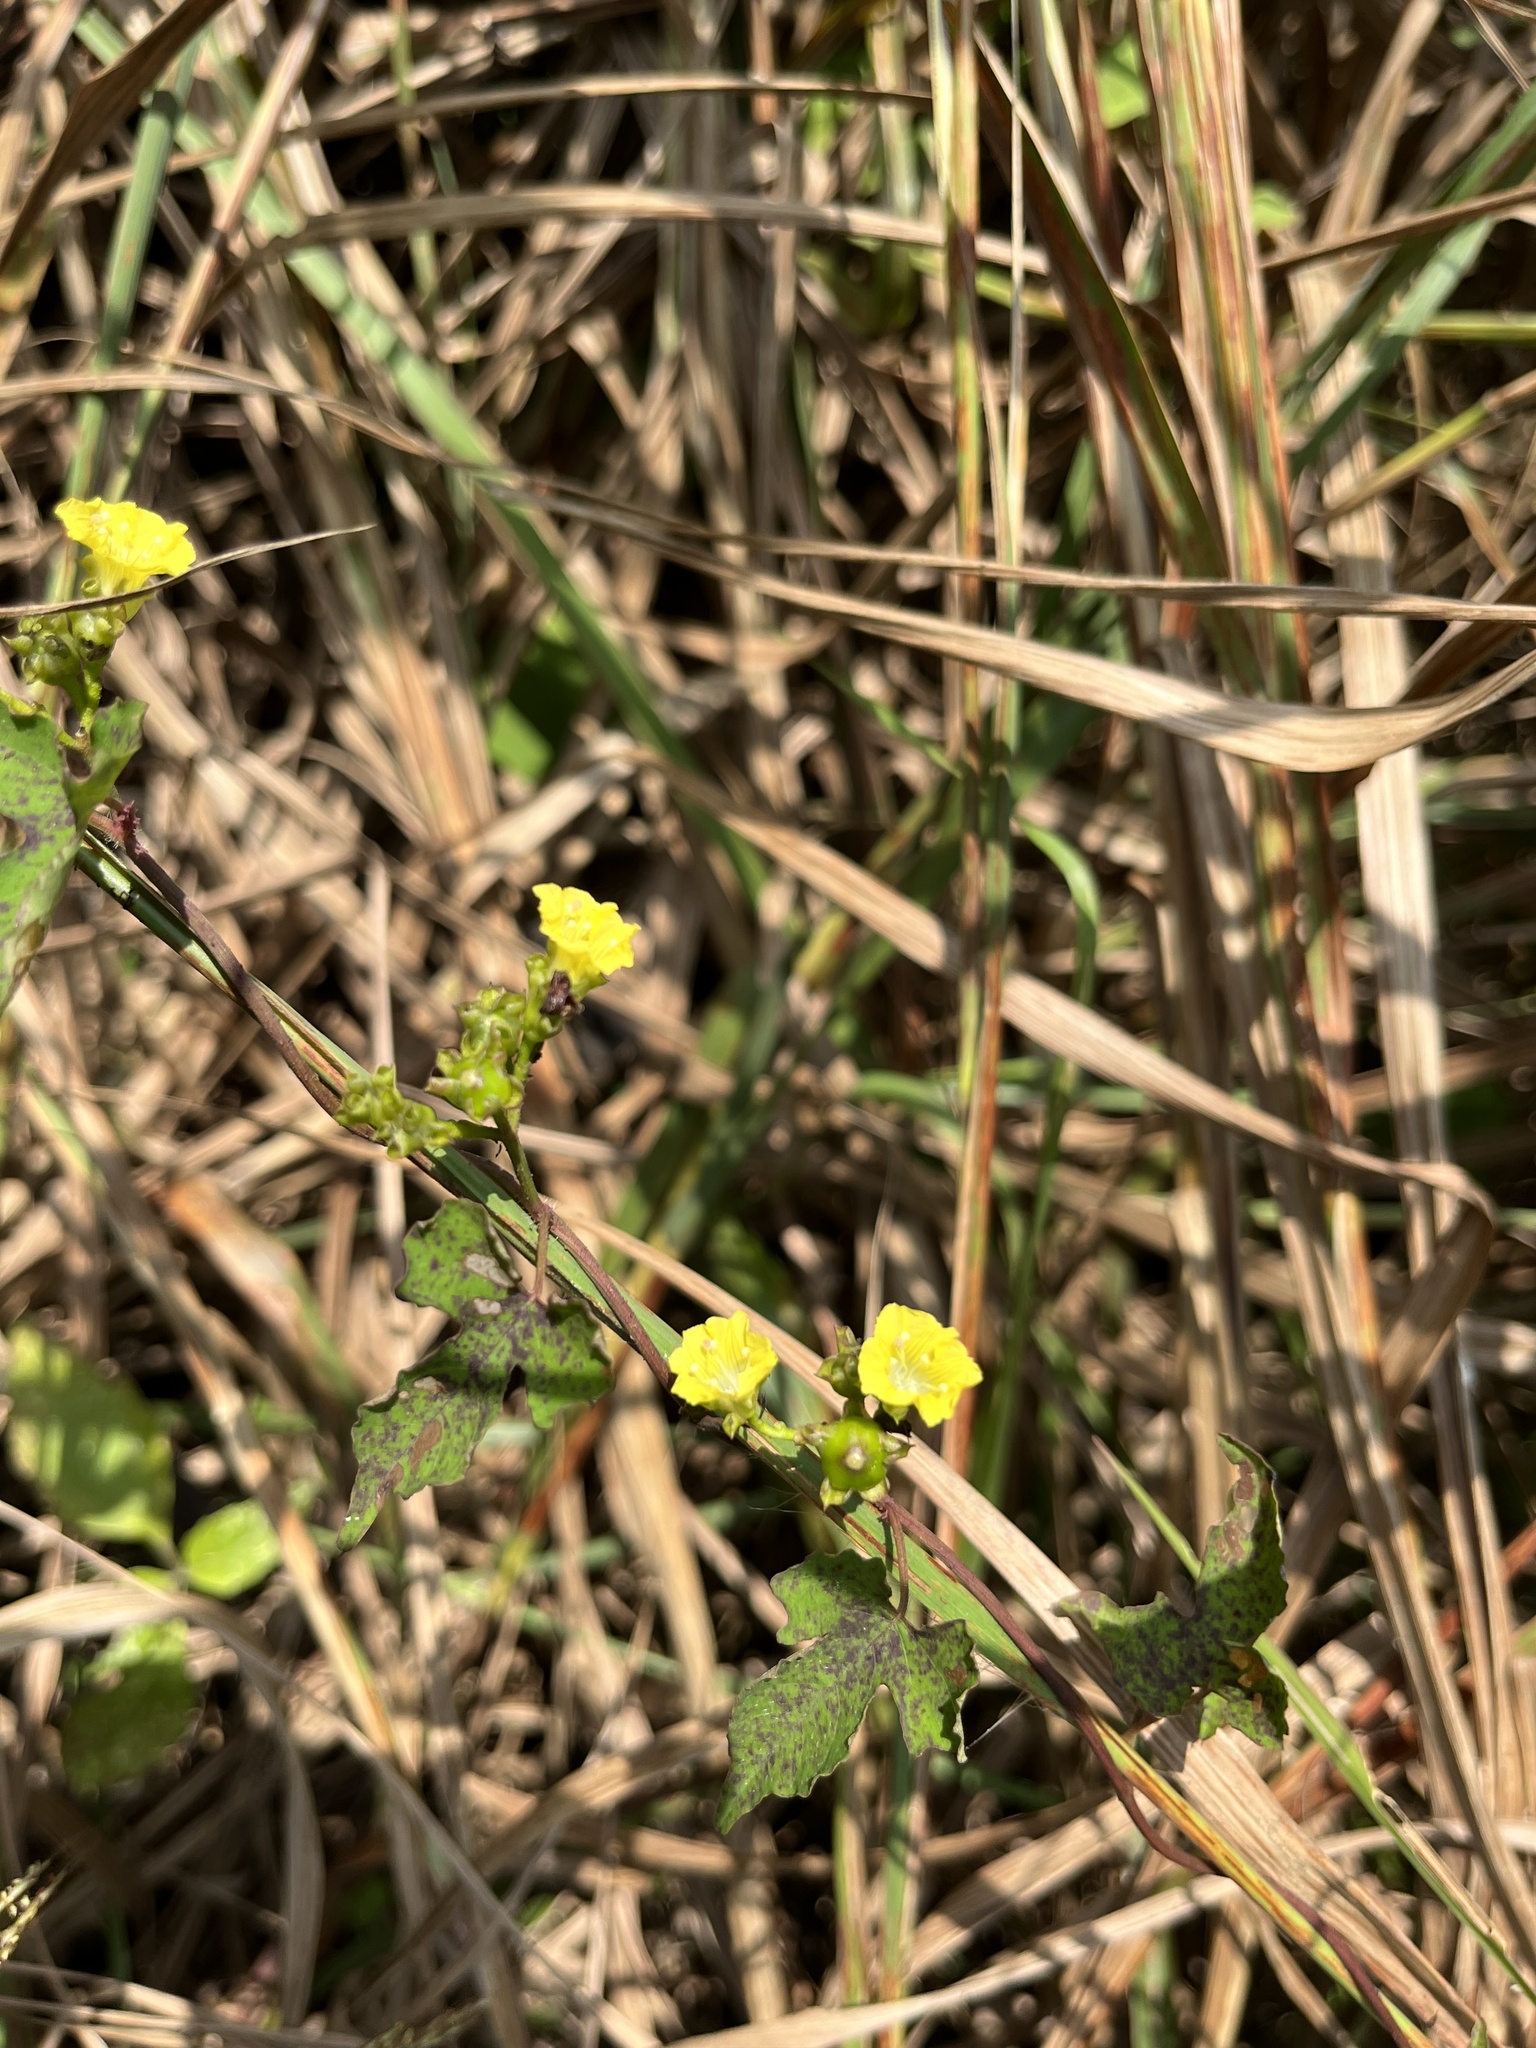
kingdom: Plantae
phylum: Tracheophyta
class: Magnoliopsida
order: Solanales
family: Convolvulaceae
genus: Merremia
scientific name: Merremia hederacea
